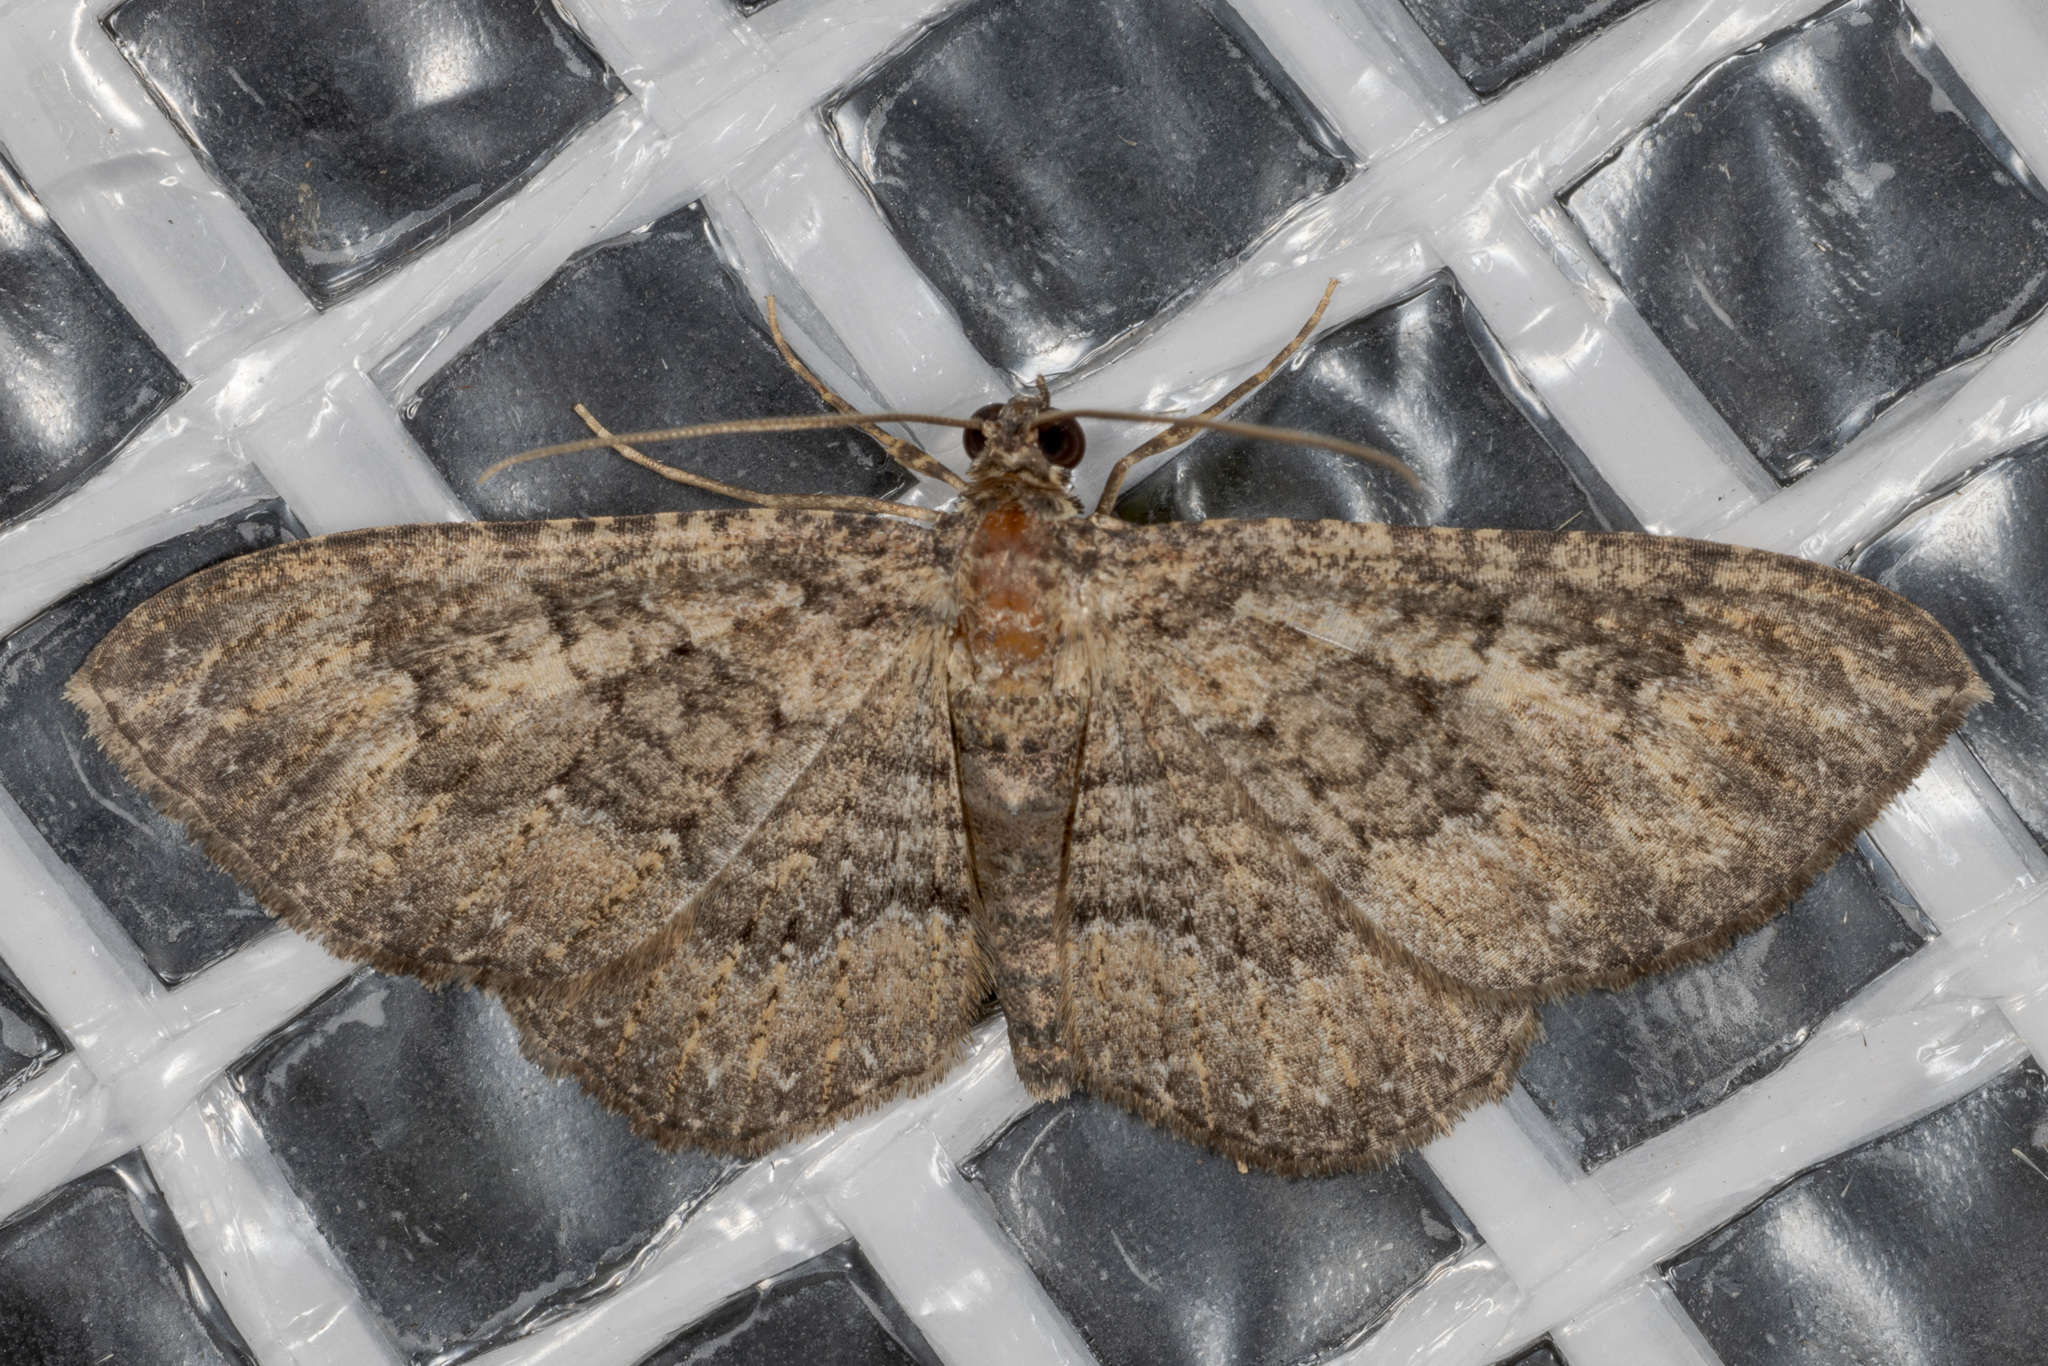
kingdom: Animalia
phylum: Arthropoda
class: Insecta
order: Lepidoptera
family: Geometridae
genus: Disclisioprocta
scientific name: Disclisioprocta stellata
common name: Somber carpet
